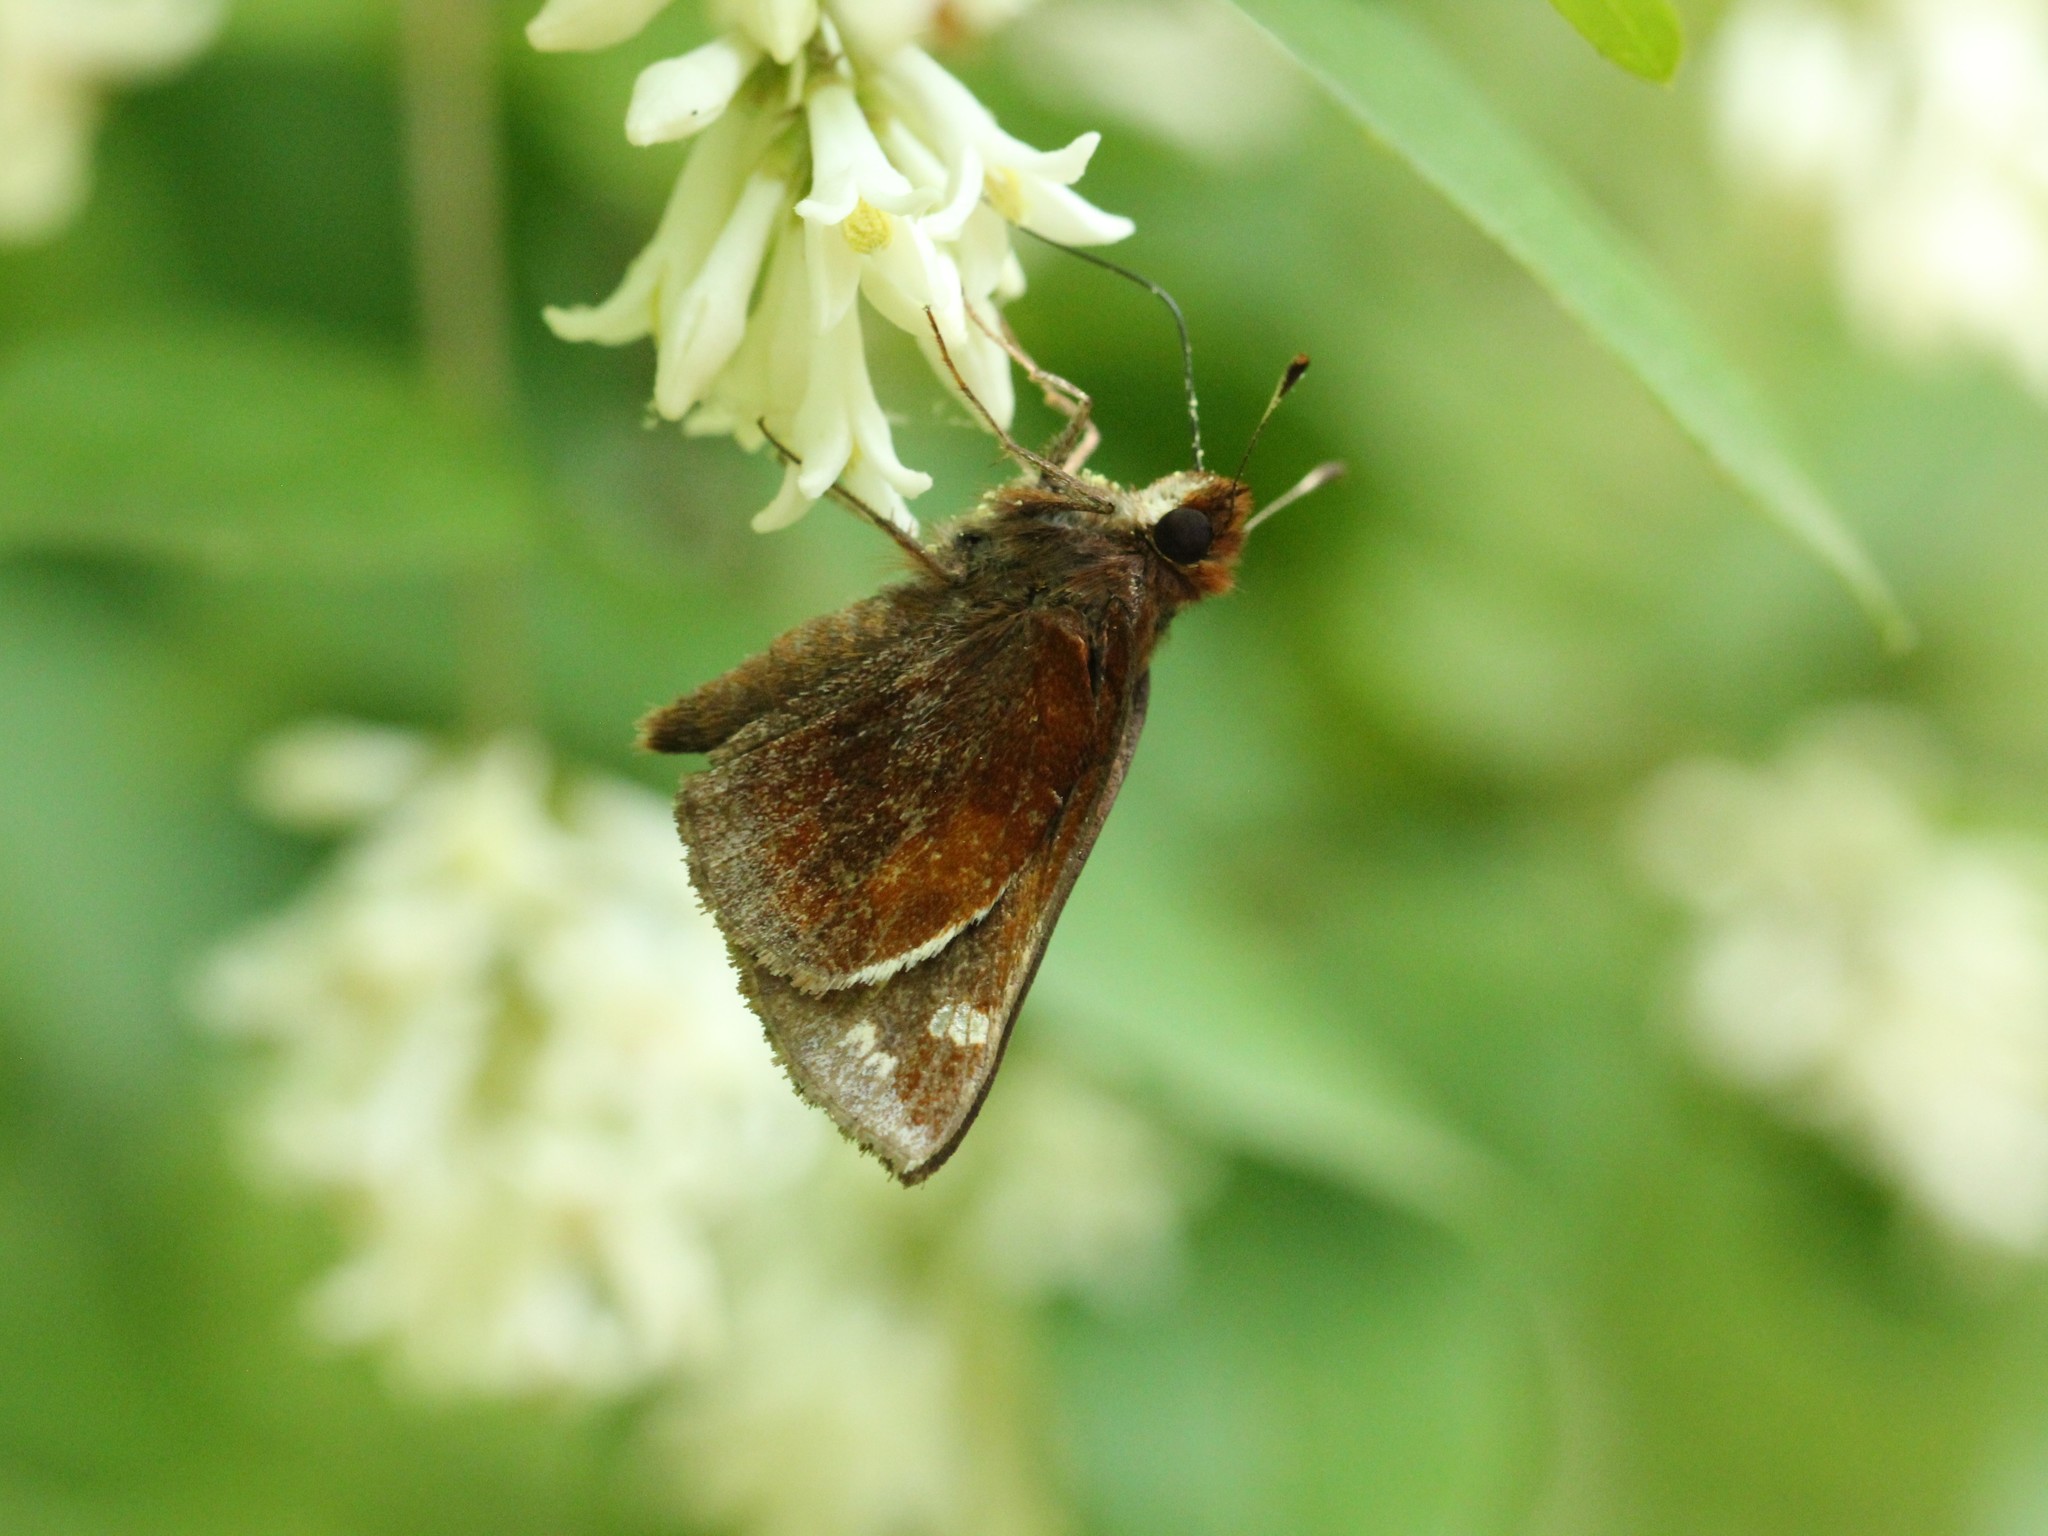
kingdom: Animalia
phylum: Arthropoda
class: Insecta
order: Lepidoptera
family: Hesperiidae
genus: Lon
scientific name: Lon zabulon
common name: Zabulon skipper
